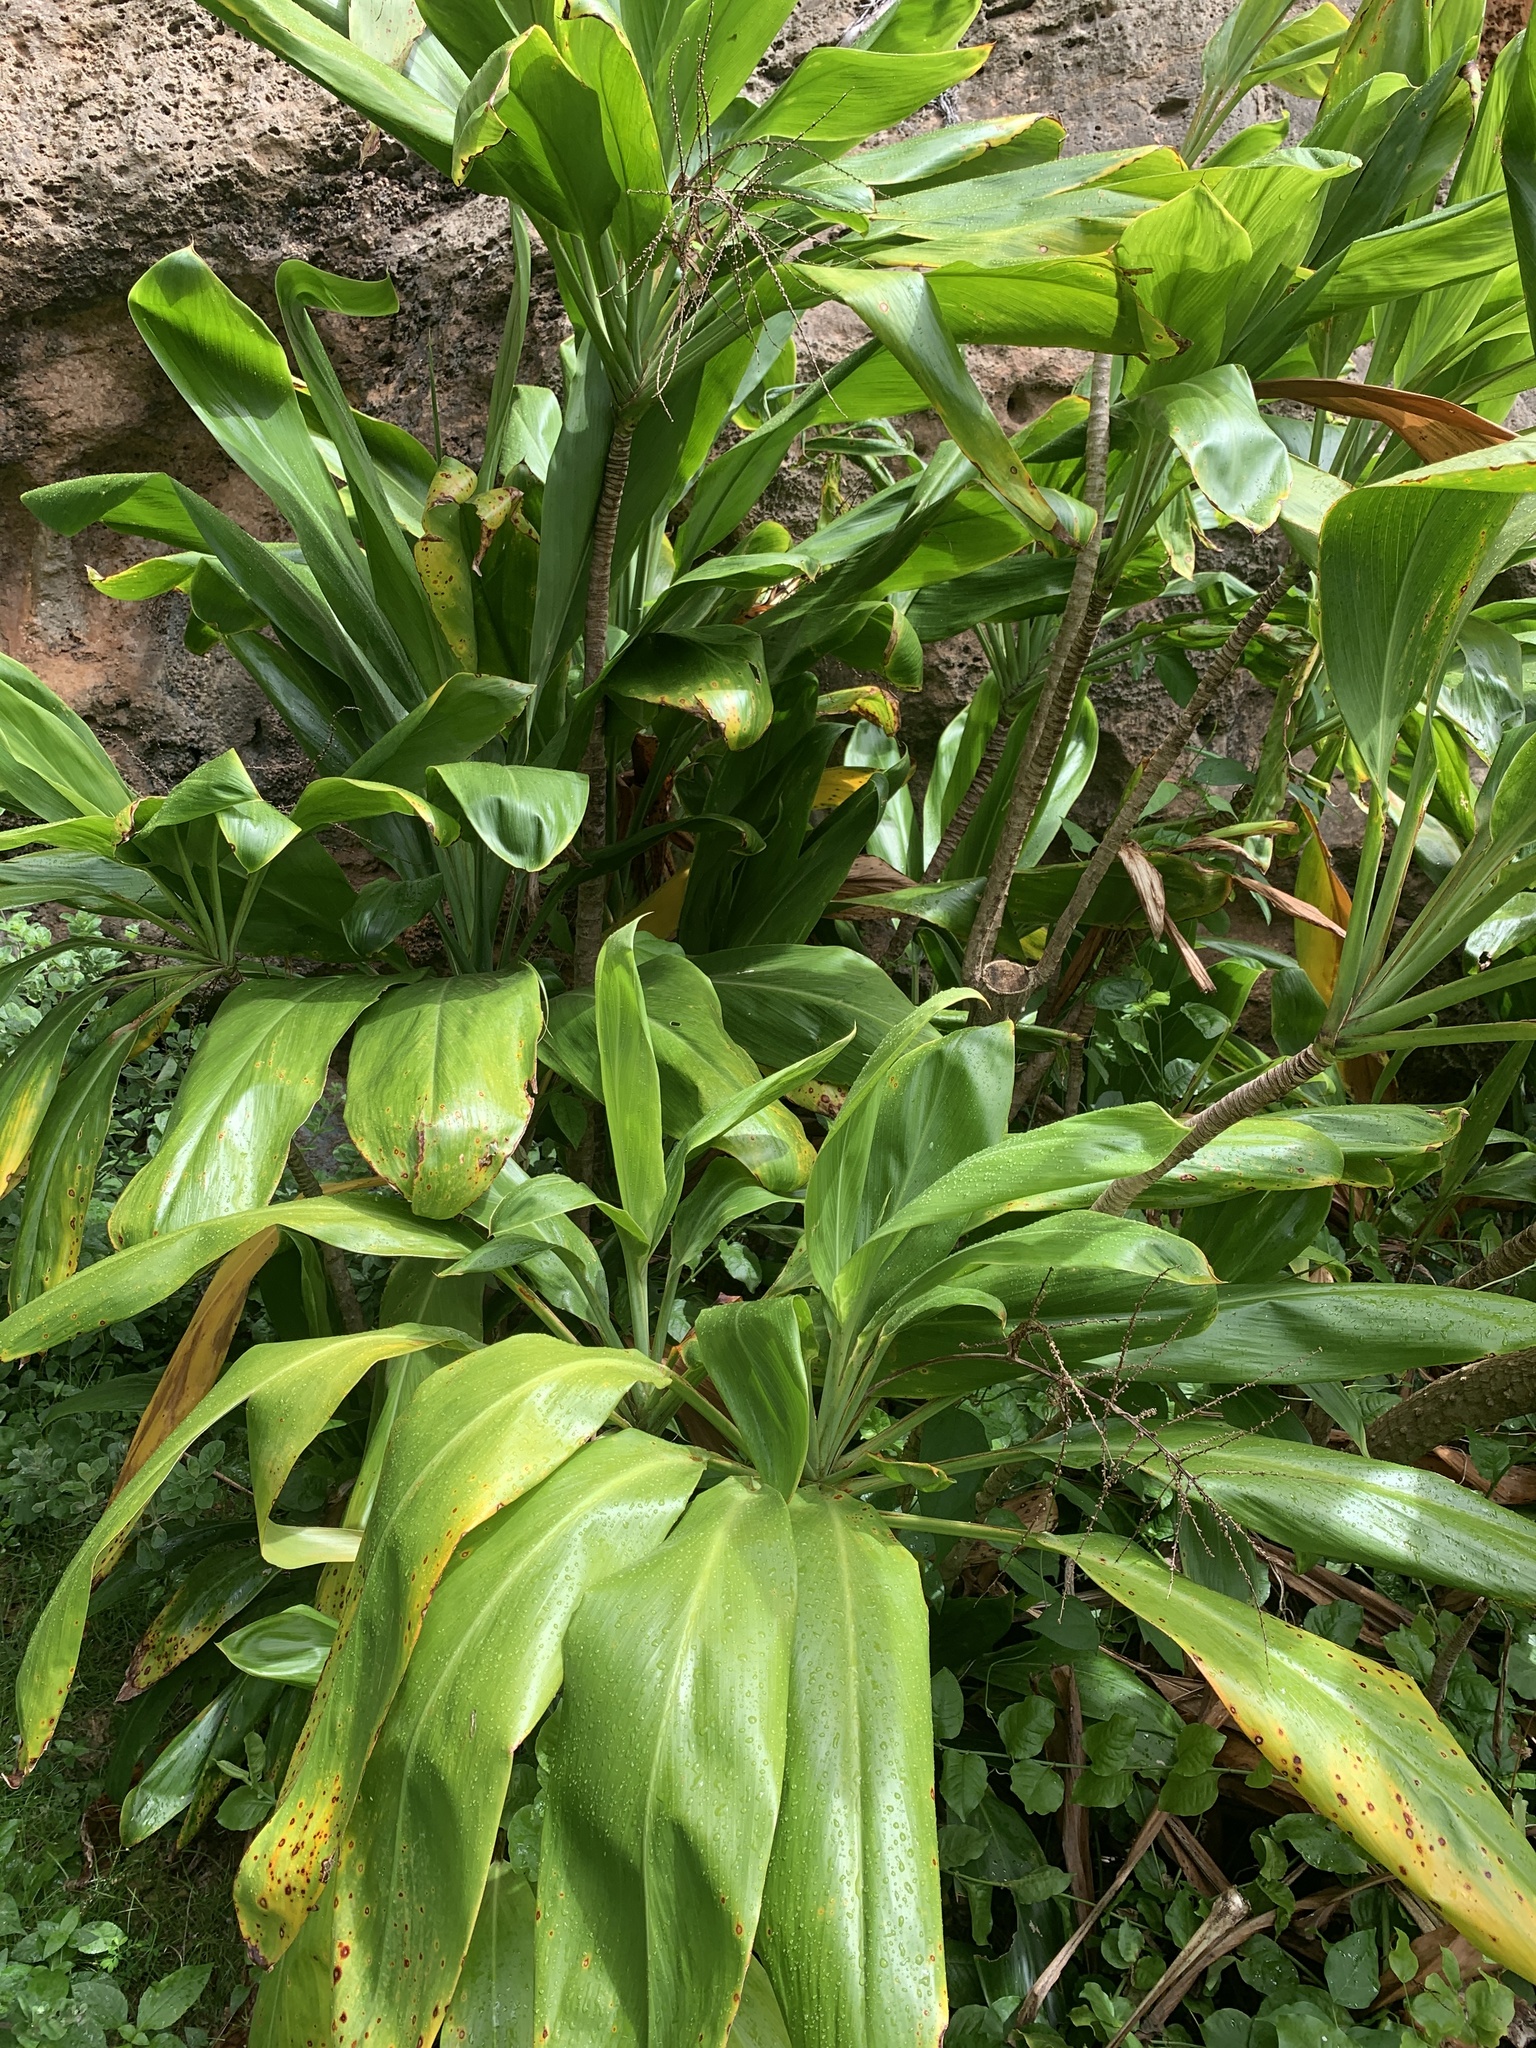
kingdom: Plantae
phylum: Tracheophyta
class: Liliopsida
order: Asparagales
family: Asparagaceae
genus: Cordyline
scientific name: Cordyline fruticosa
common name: Good-luck-plant
